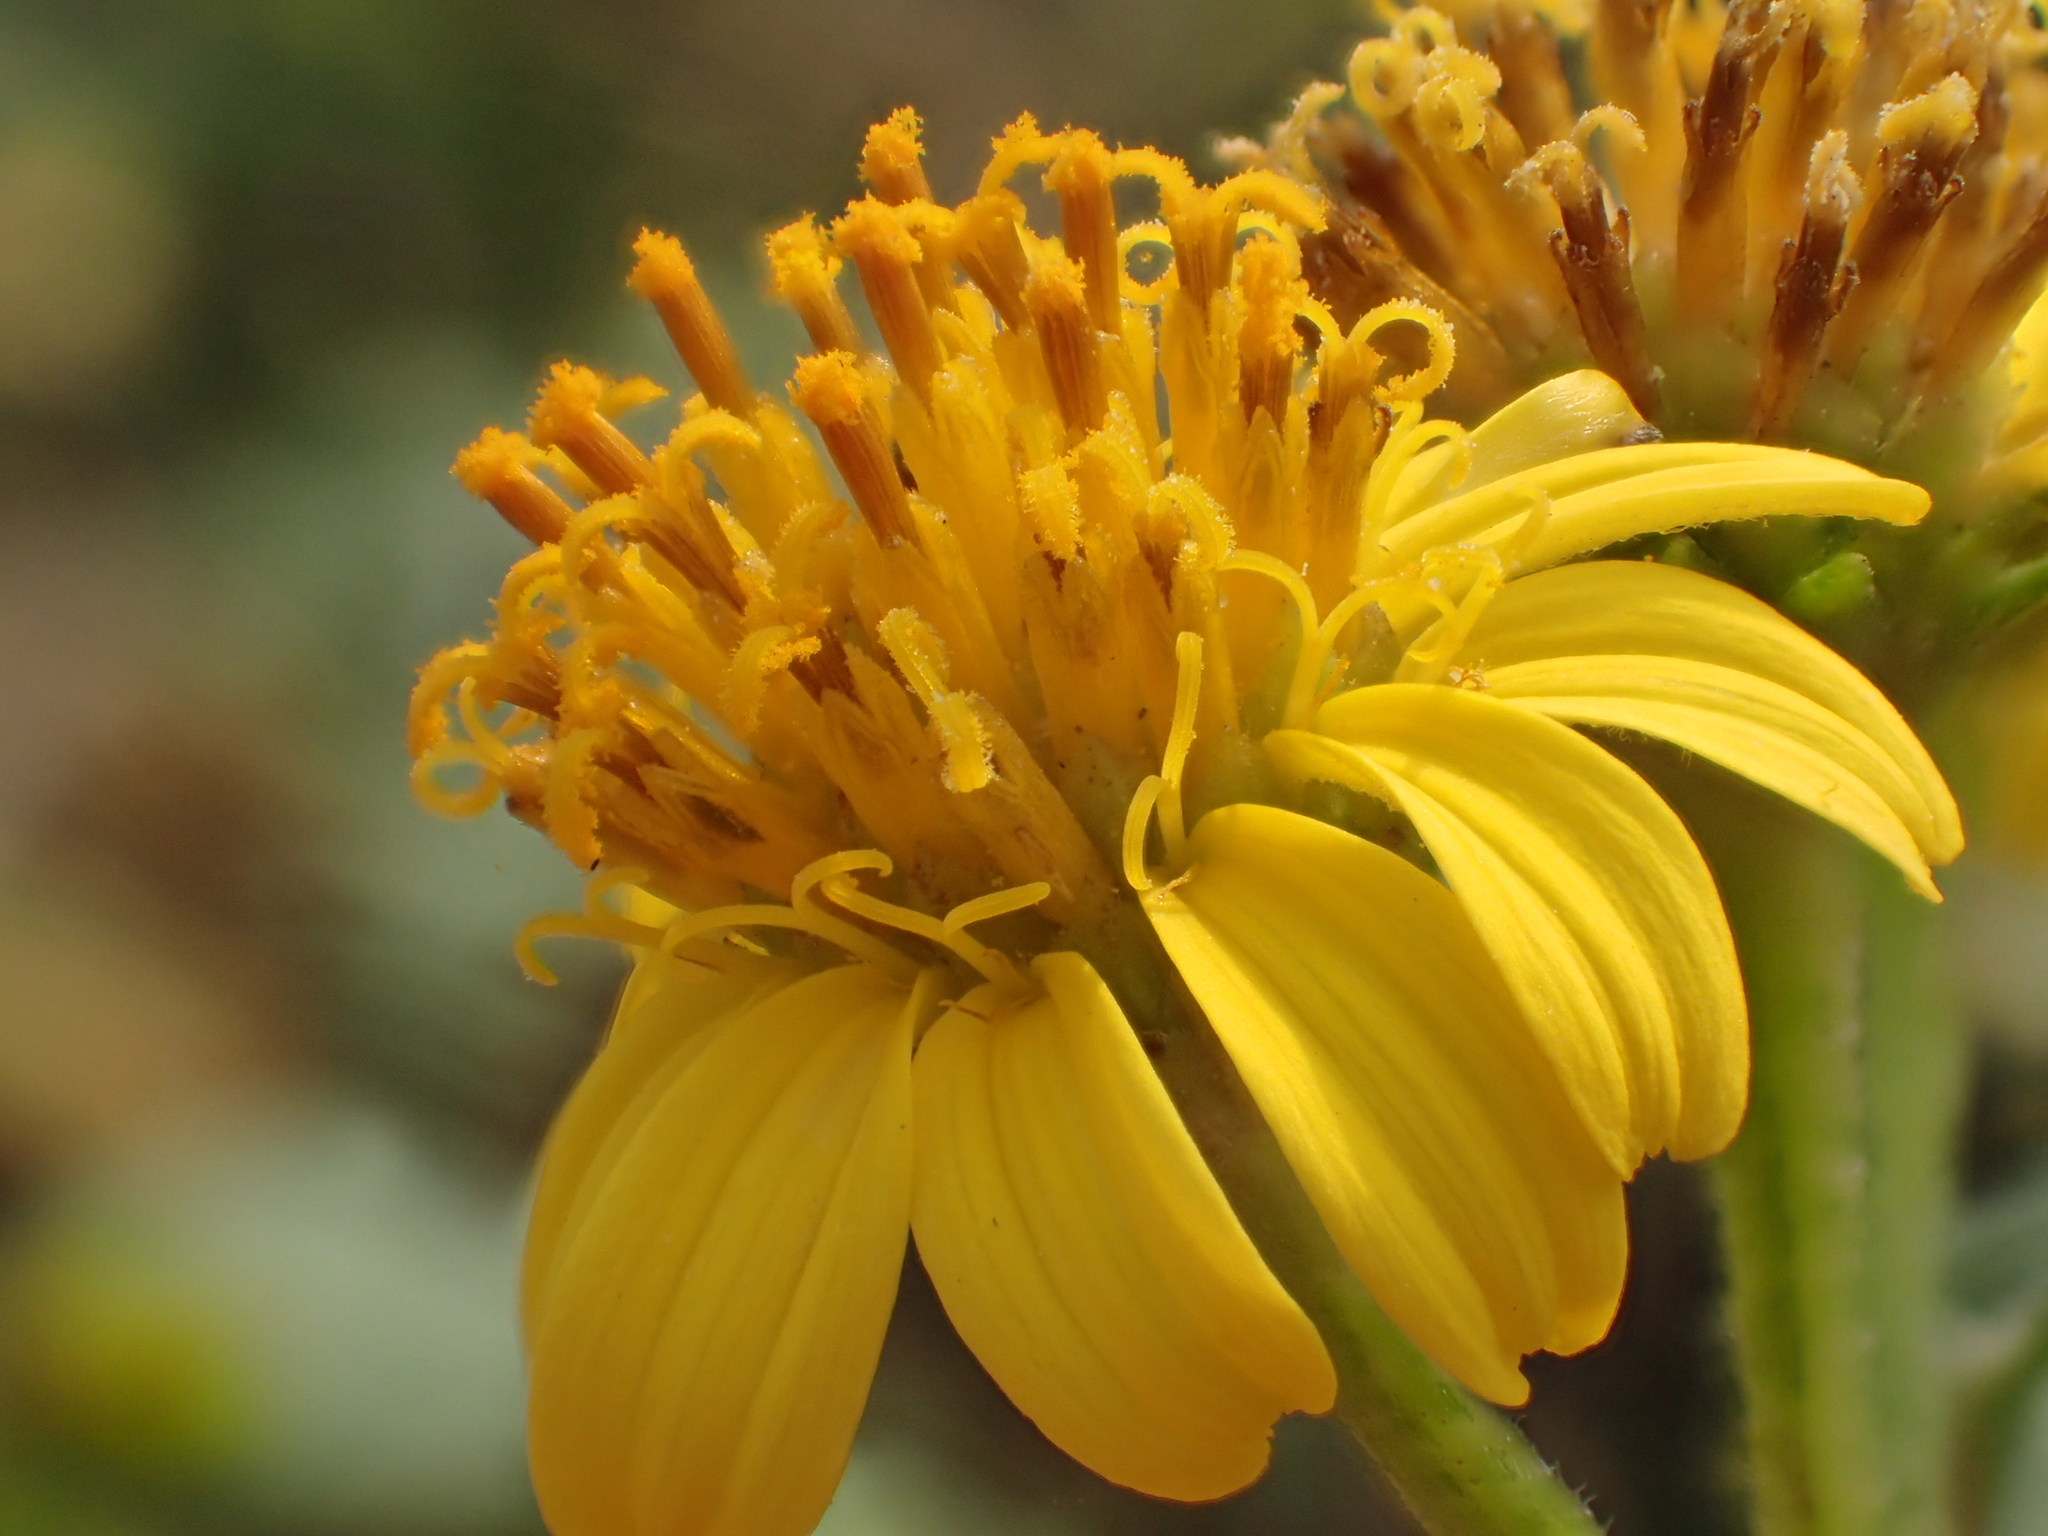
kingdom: Plantae
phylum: Tracheophyta
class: Magnoliopsida
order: Asterales
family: Asteraceae
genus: Wollastonia
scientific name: Wollastonia biflora
